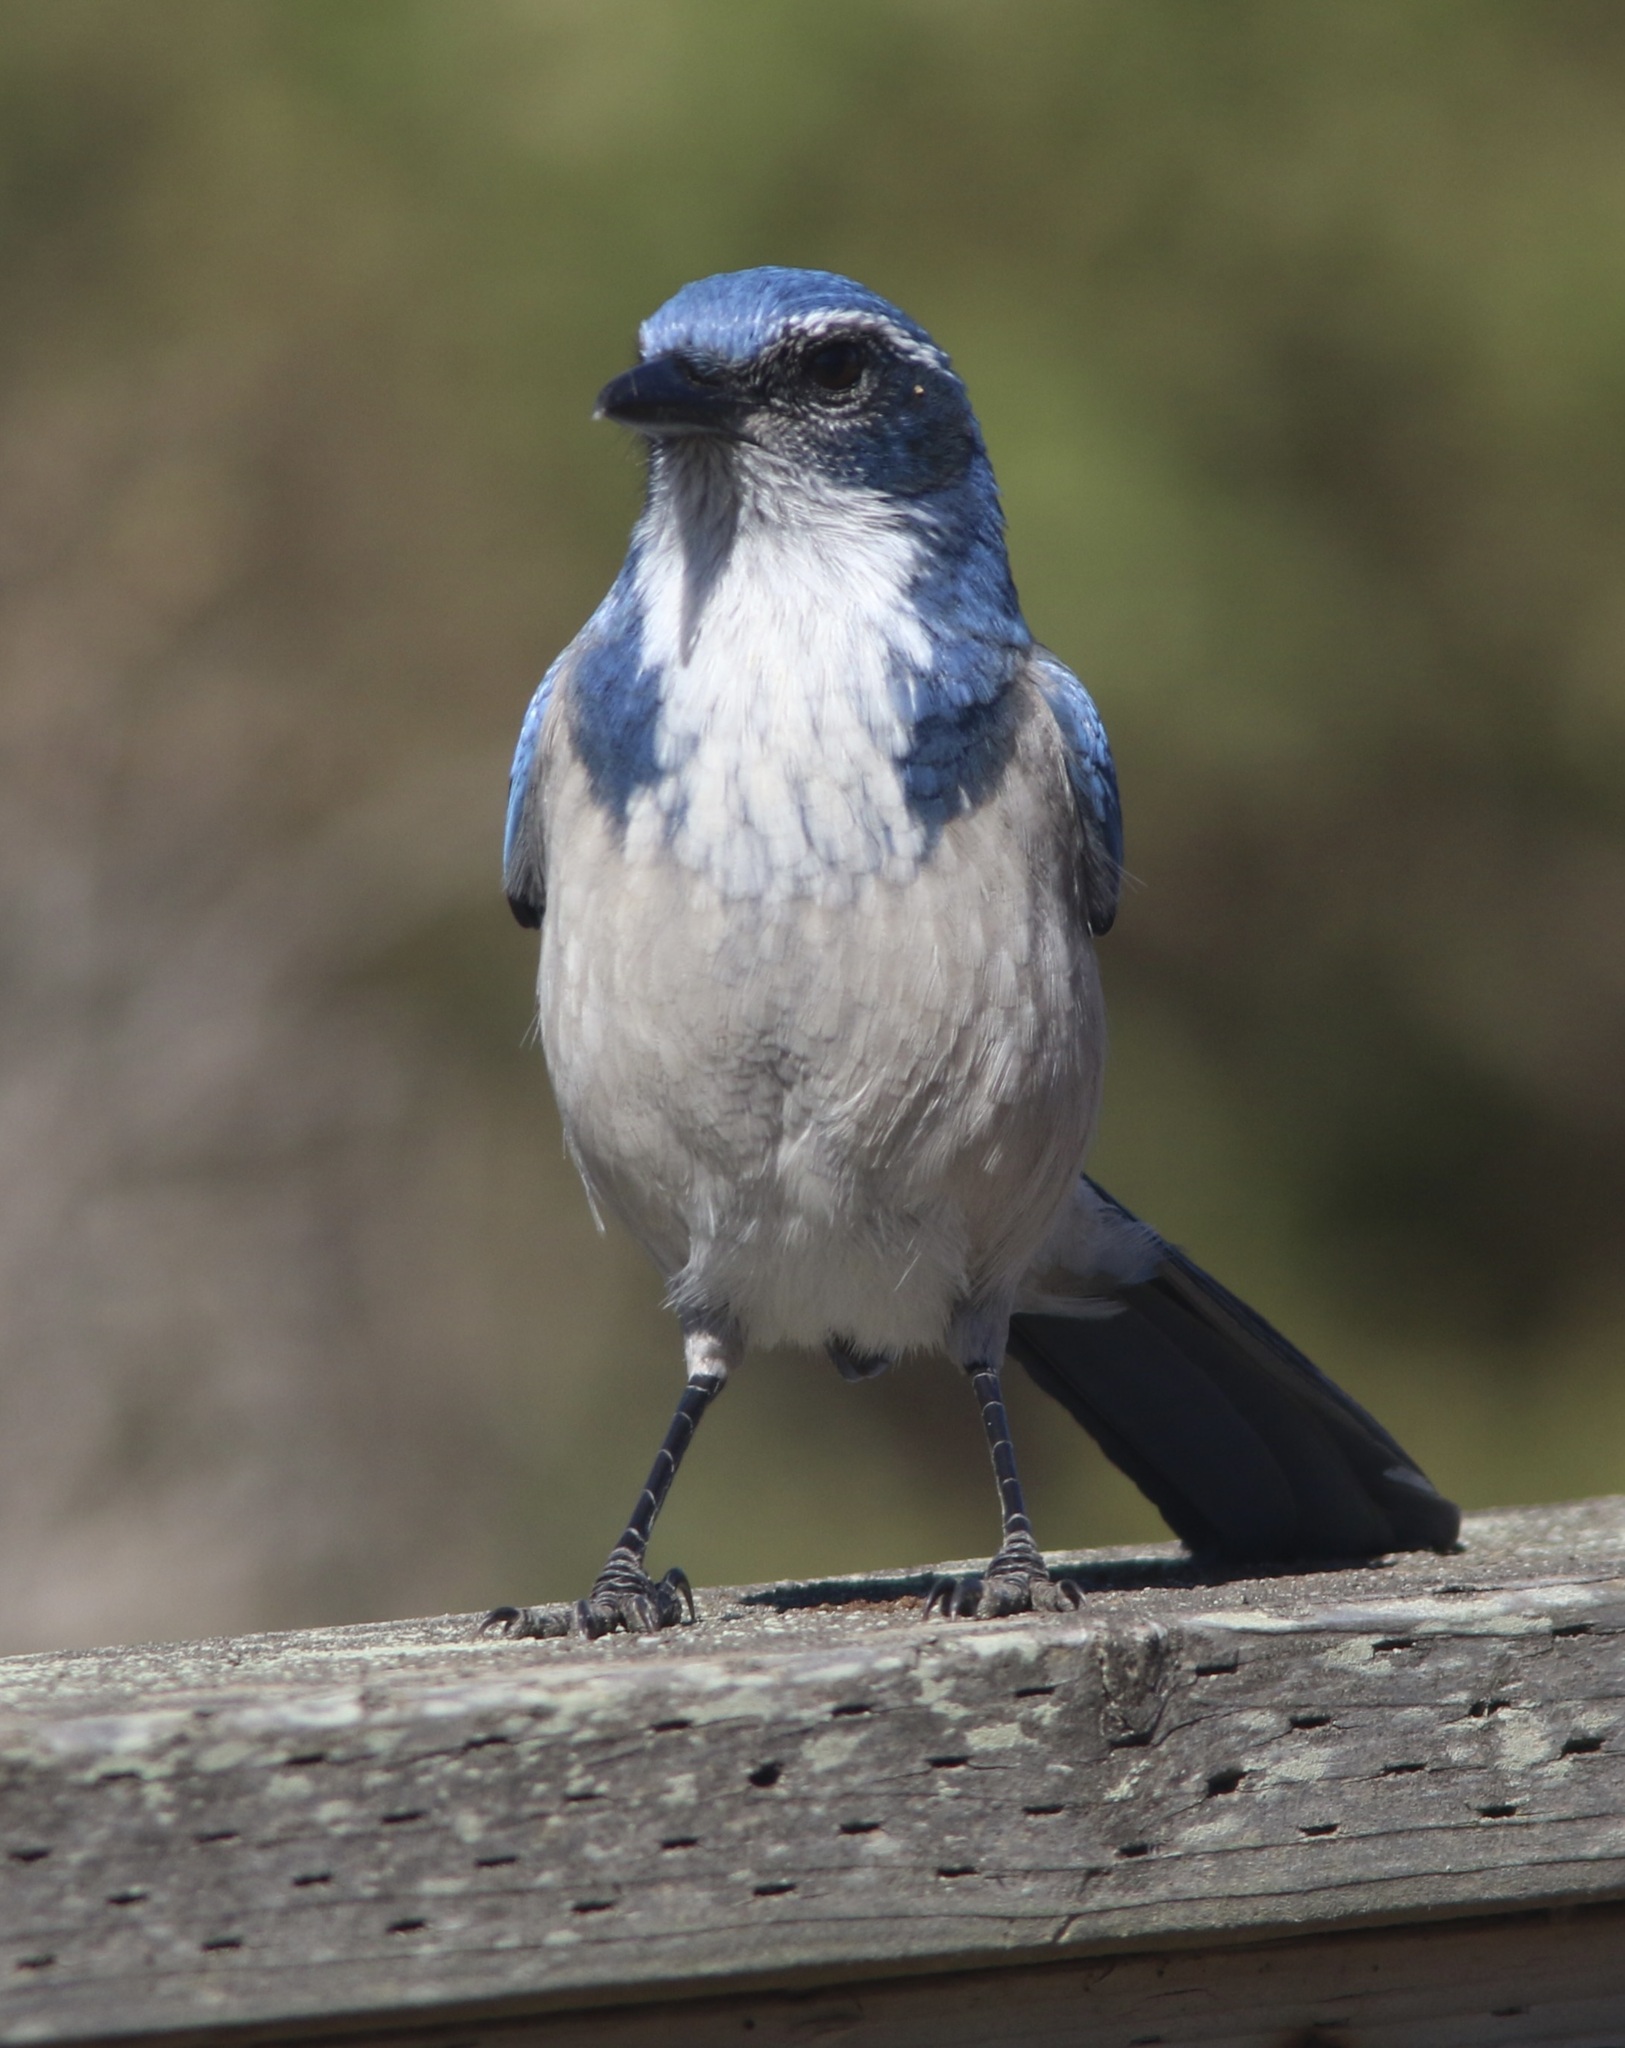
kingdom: Animalia
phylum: Chordata
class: Aves
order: Passeriformes
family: Corvidae
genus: Aphelocoma
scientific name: Aphelocoma californica
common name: California scrub-jay
